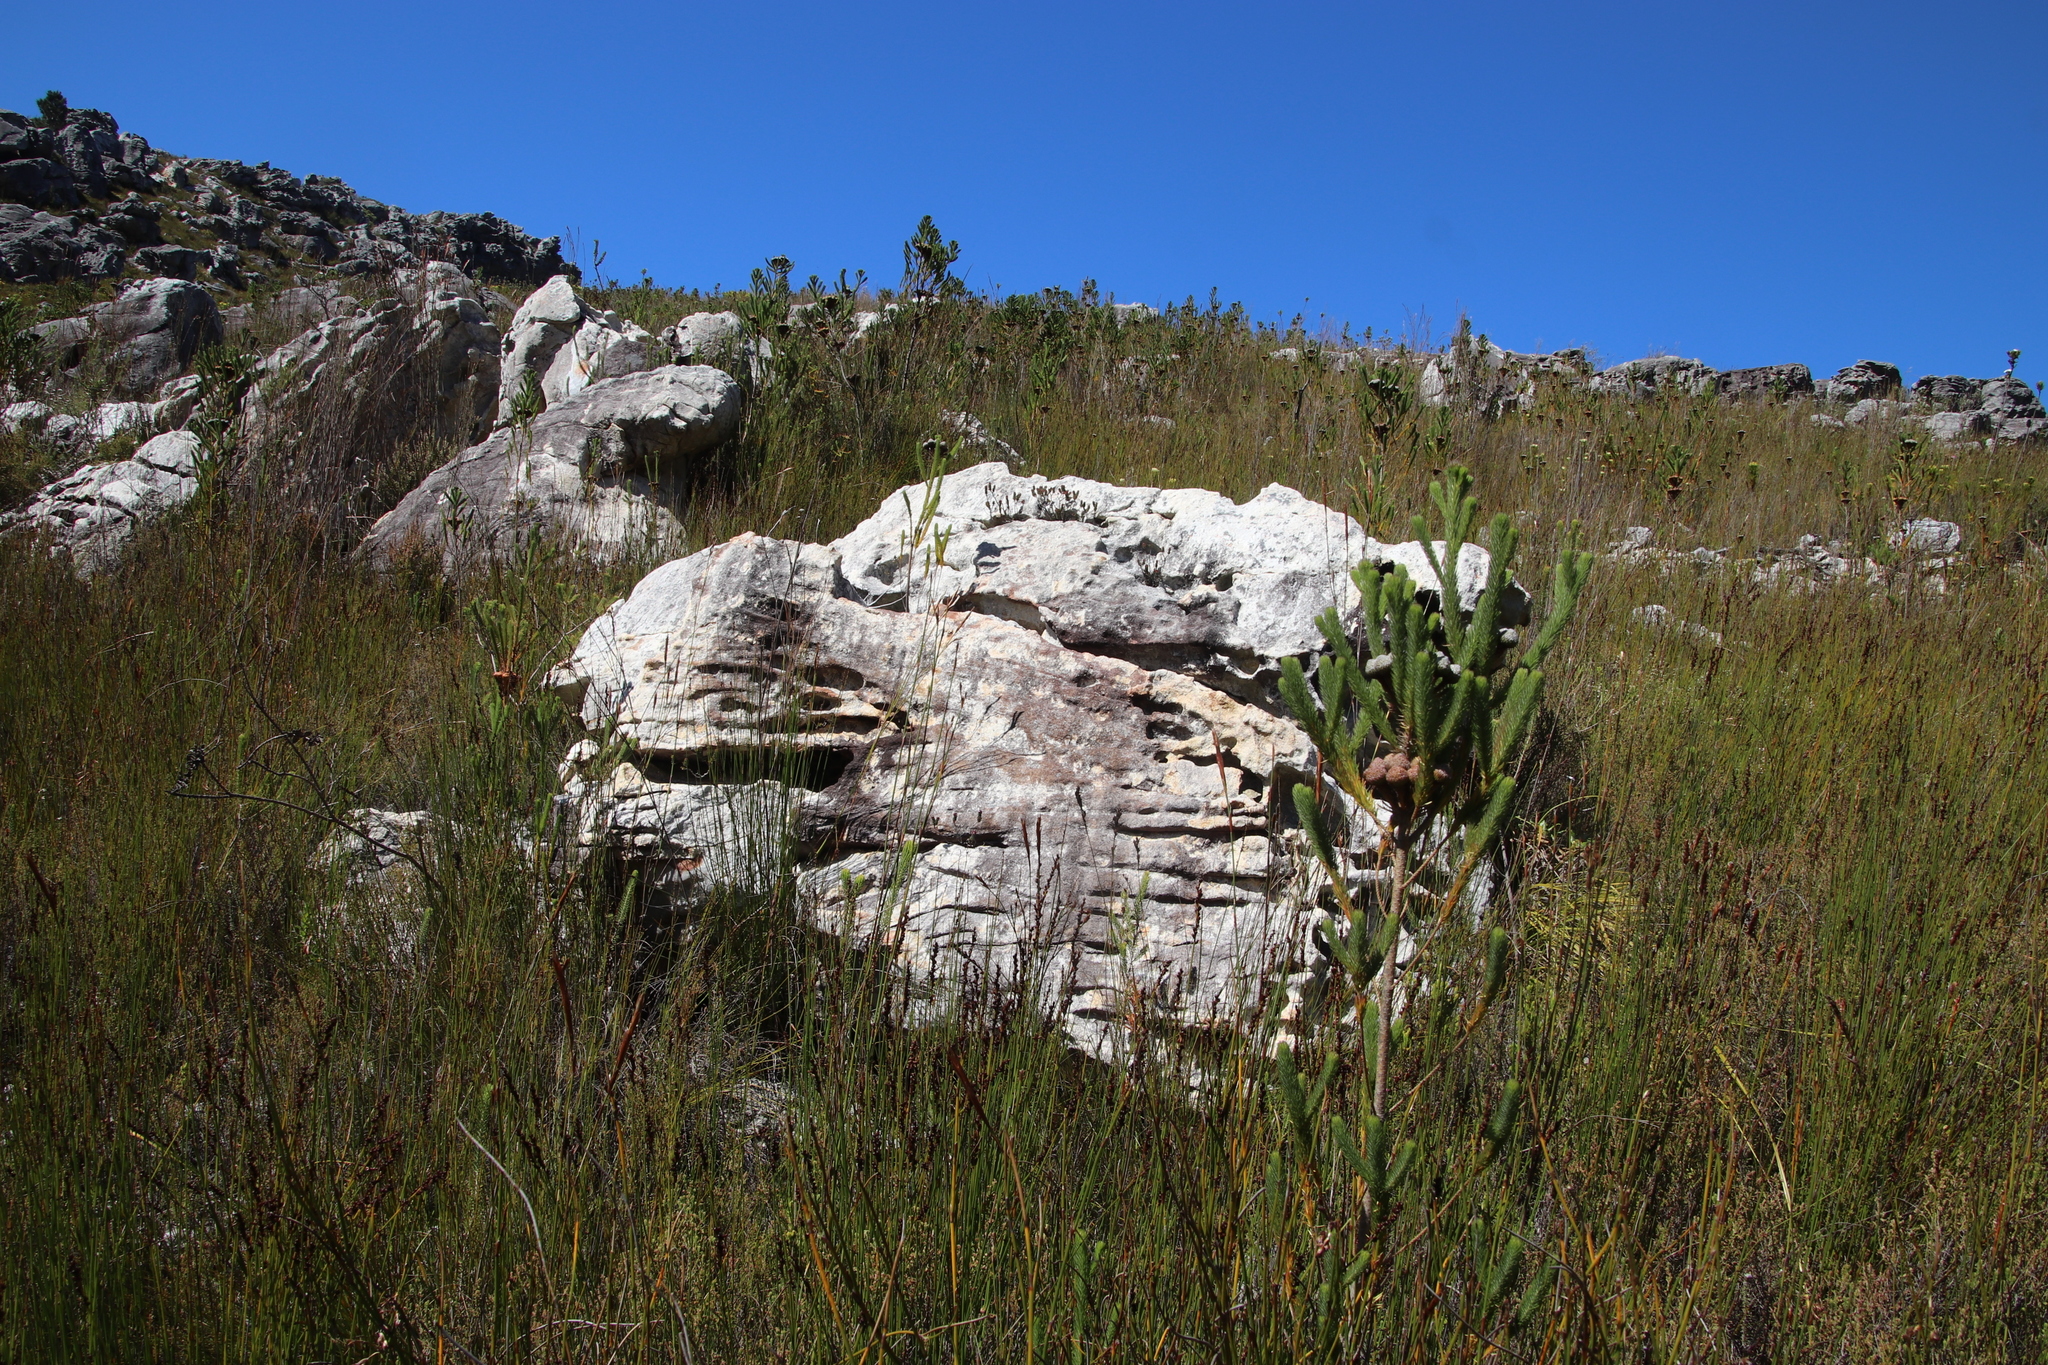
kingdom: Plantae
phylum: Tracheophyta
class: Magnoliopsida
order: Myrtales
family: Penaeaceae
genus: Sonderothamnus
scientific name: Sonderothamnus petraeus
